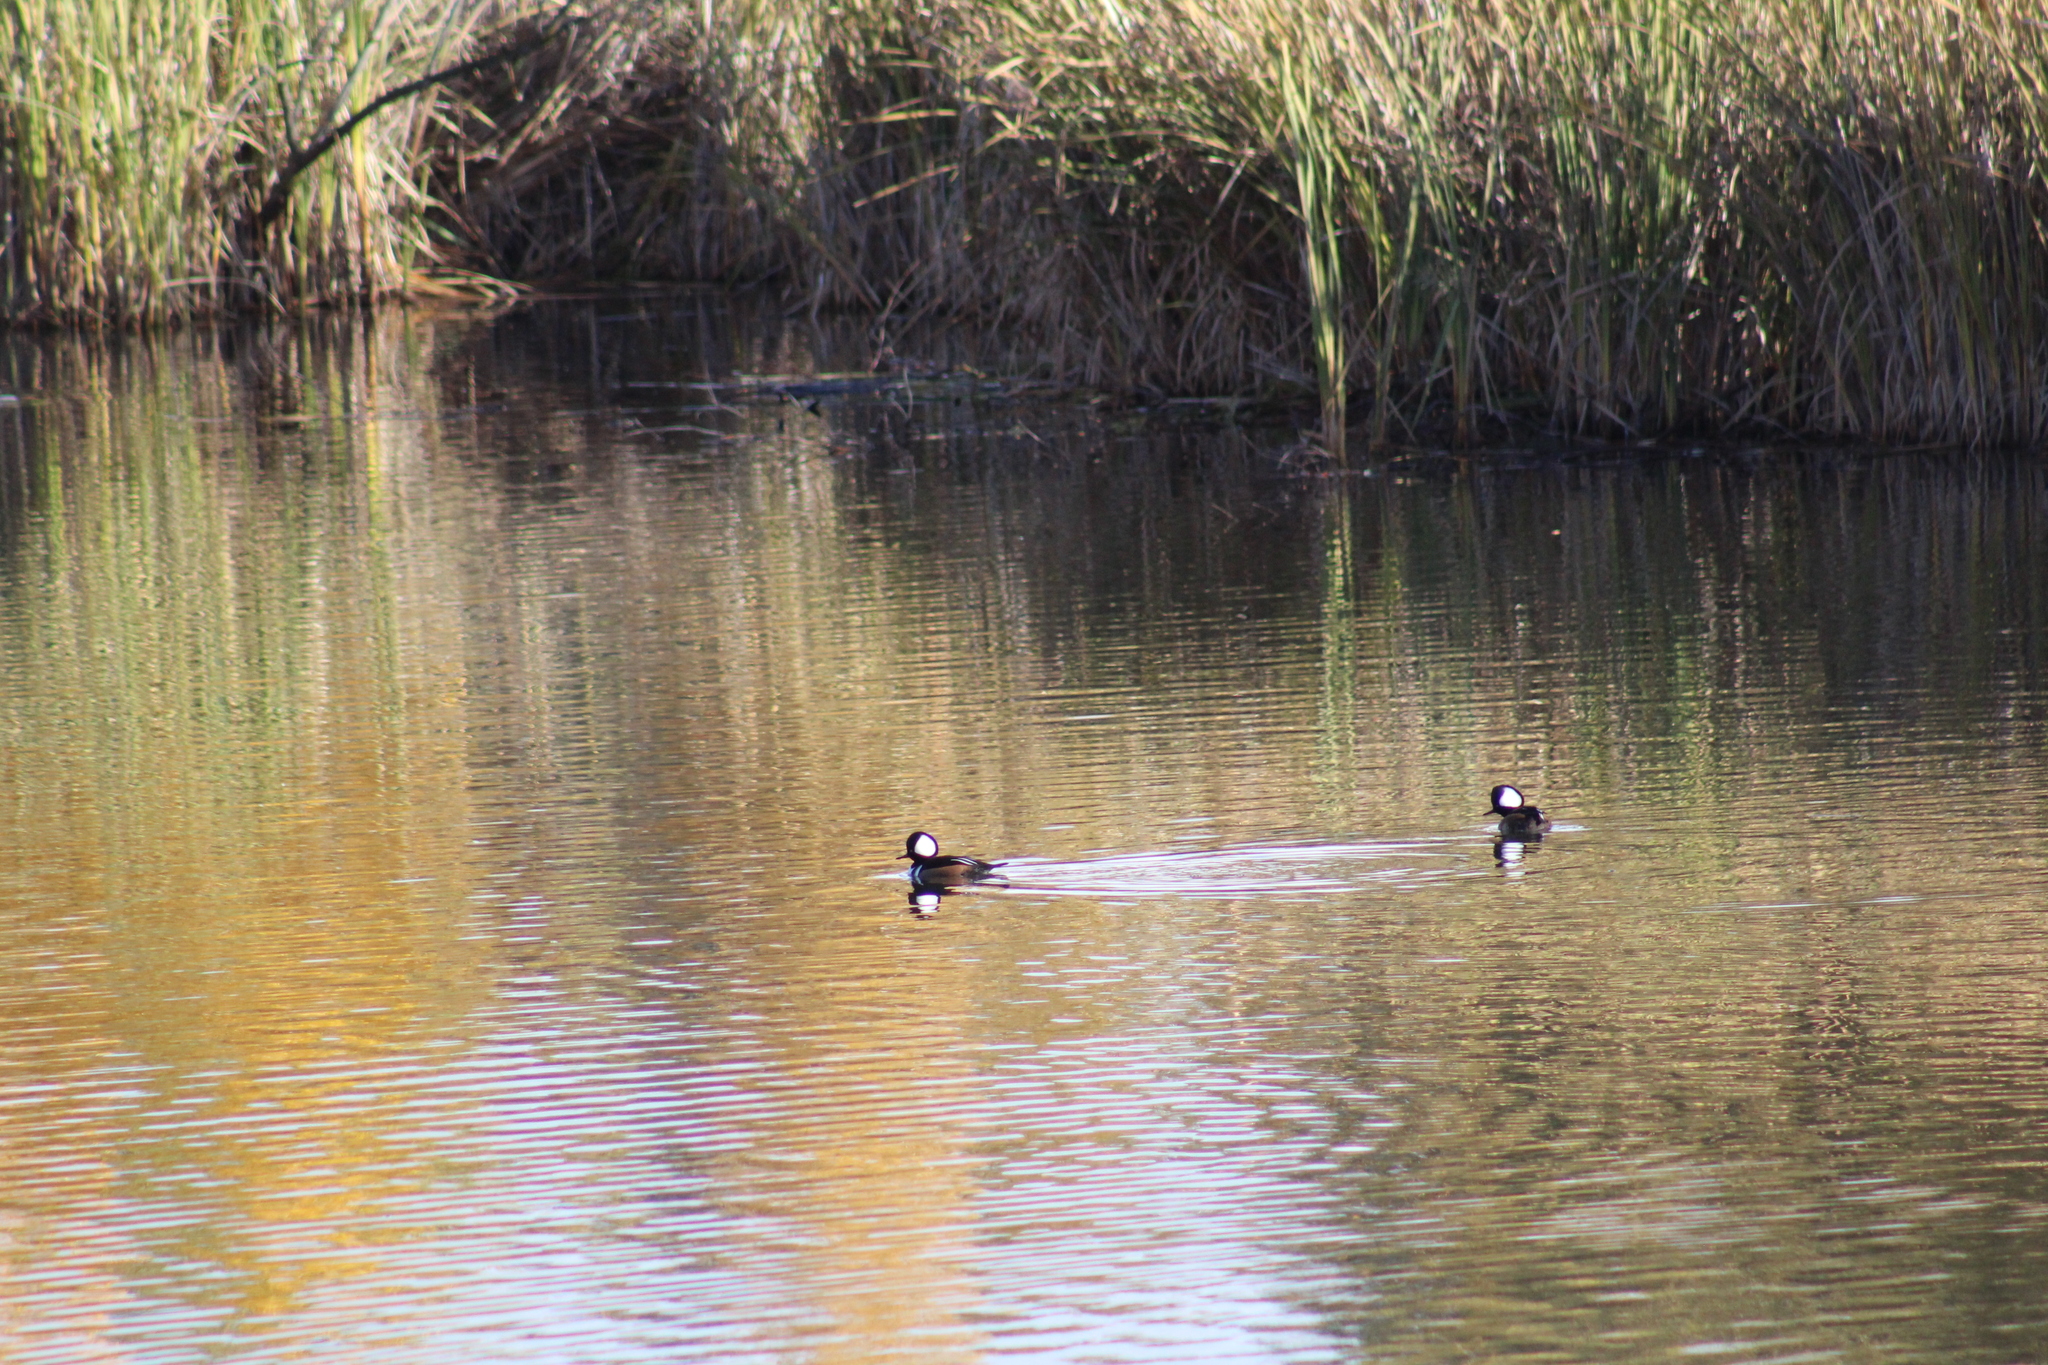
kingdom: Animalia
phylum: Chordata
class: Aves
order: Anseriformes
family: Anatidae
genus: Lophodytes
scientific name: Lophodytes cucullatus
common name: Hooded merganser
